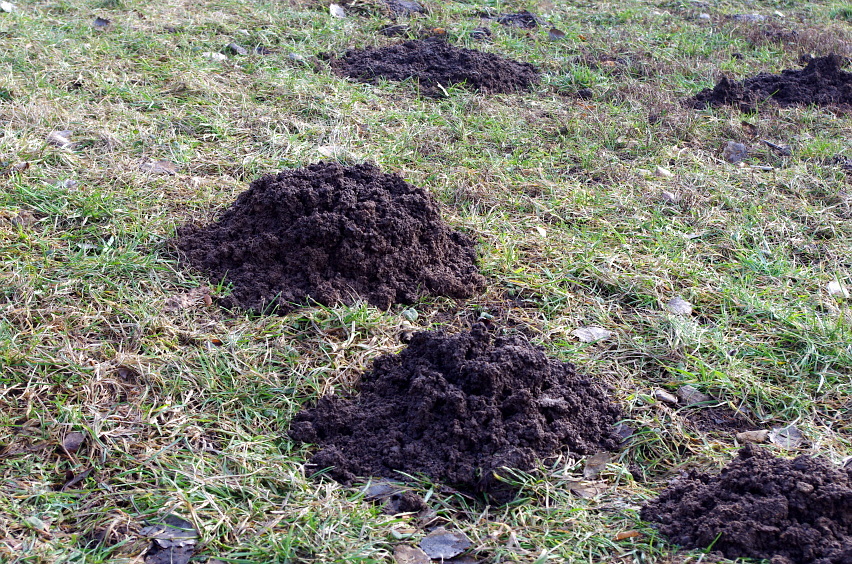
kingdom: Animalia
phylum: Chordata
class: Mammalia
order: Soricomorpha
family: Talpidae
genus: Talpa
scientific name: Talpa europaea
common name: European mole
